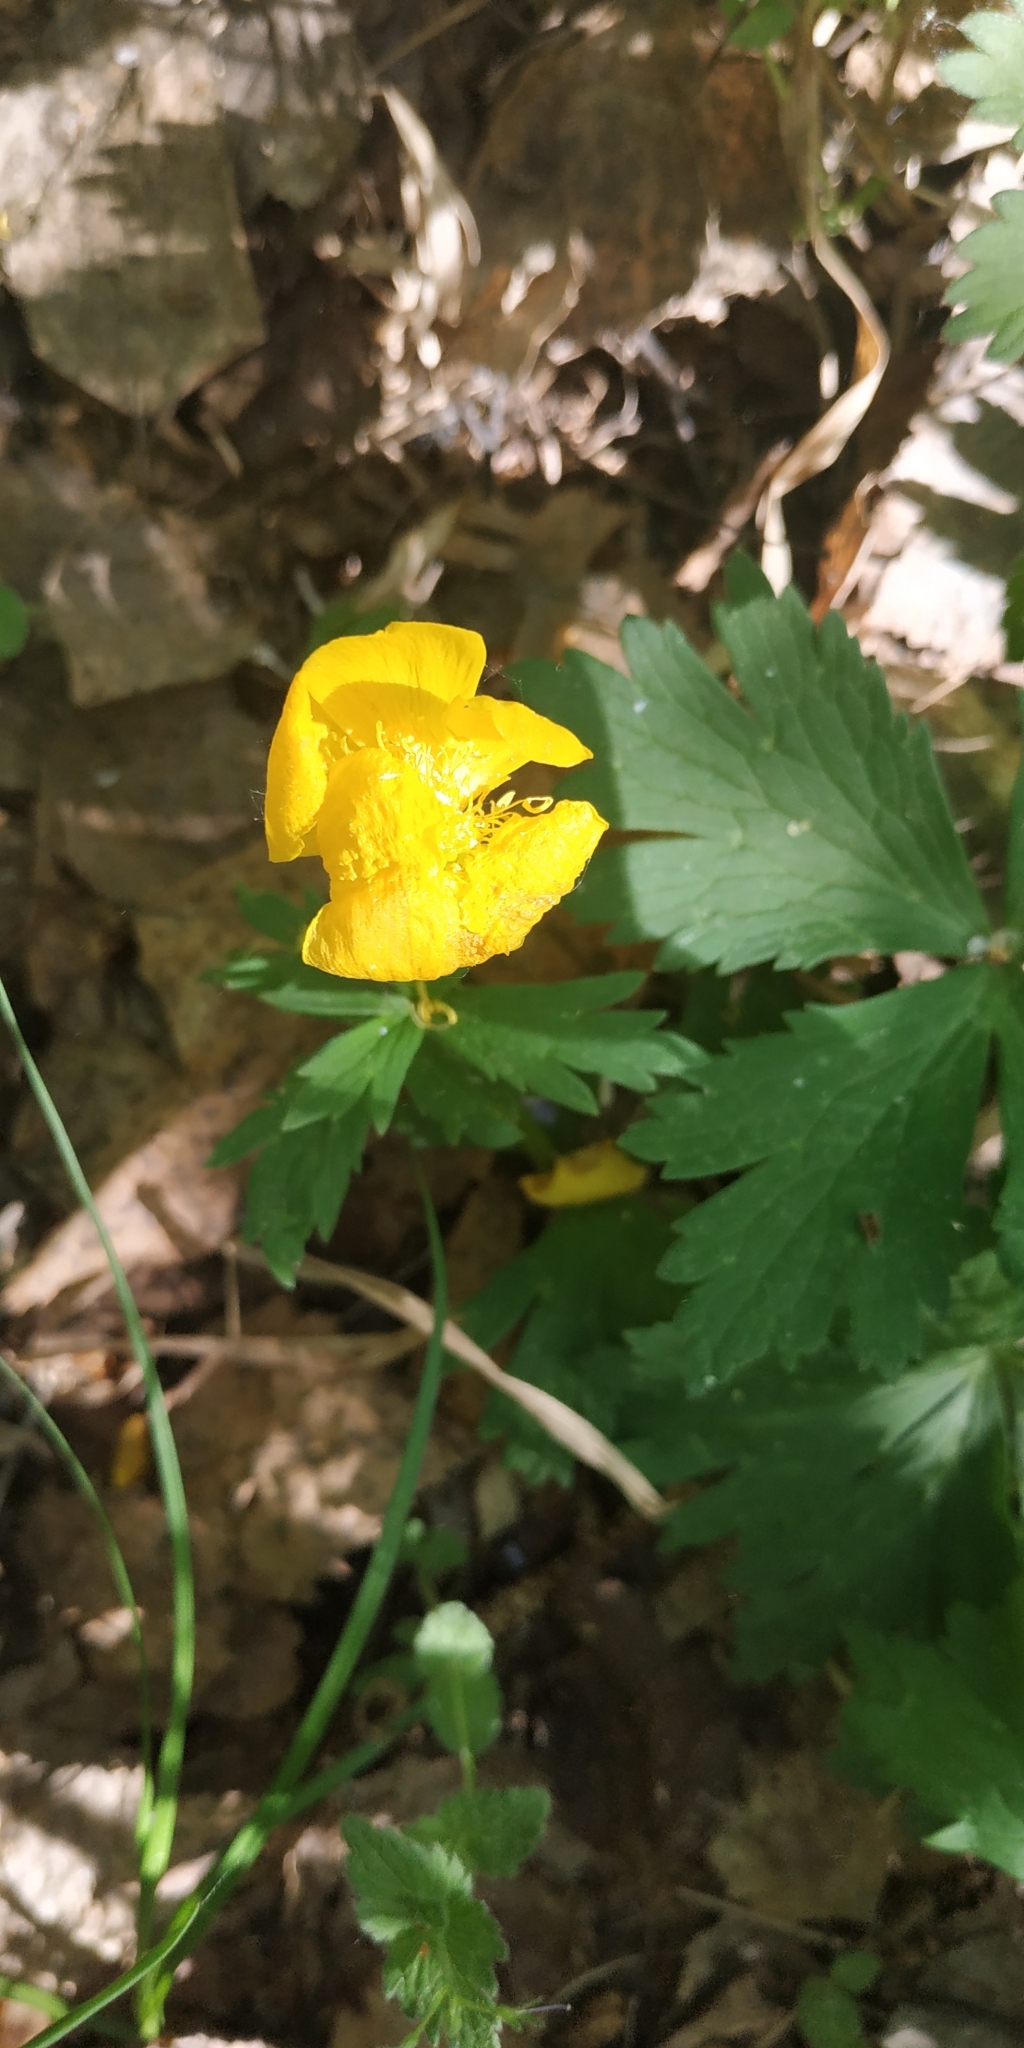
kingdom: Plantae
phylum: Tracheophyta
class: Magnoliopsida
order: Ranunculales
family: Ranunculaceae
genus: Trollius
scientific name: Trollius europaeus
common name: European globeflower
